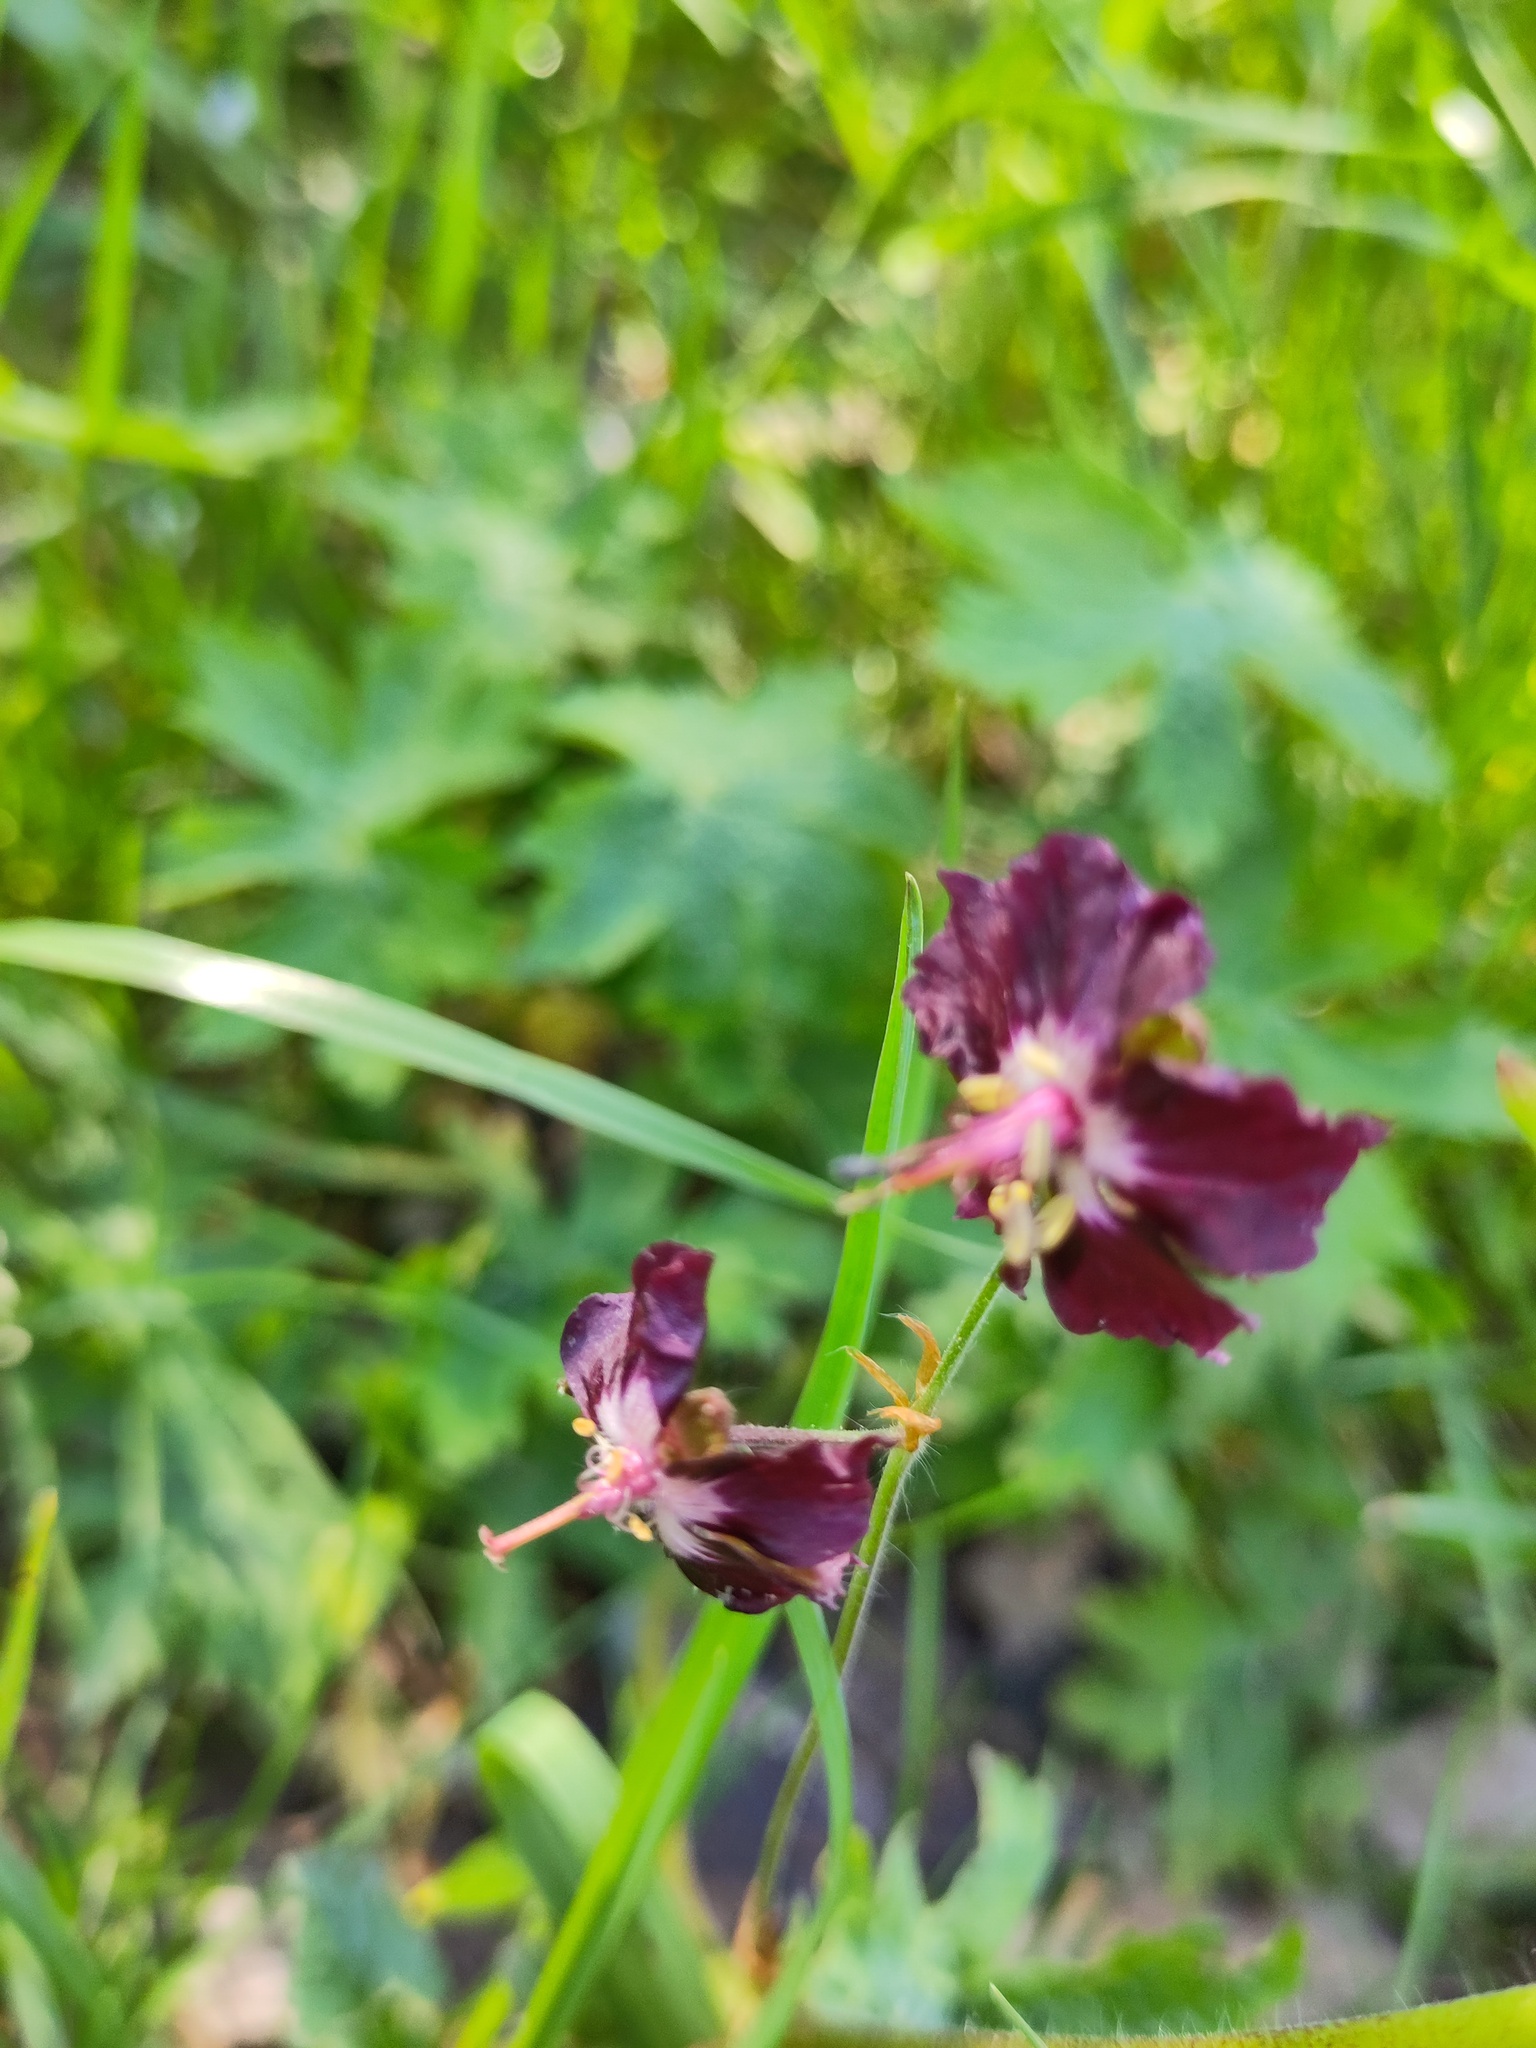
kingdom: Plantae
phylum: Tracheophyta
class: Magnoliopsida
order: Geraniales
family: Geraniaceae
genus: Geranium
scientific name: Geranium phaeum
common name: Dusky crane's-bill
